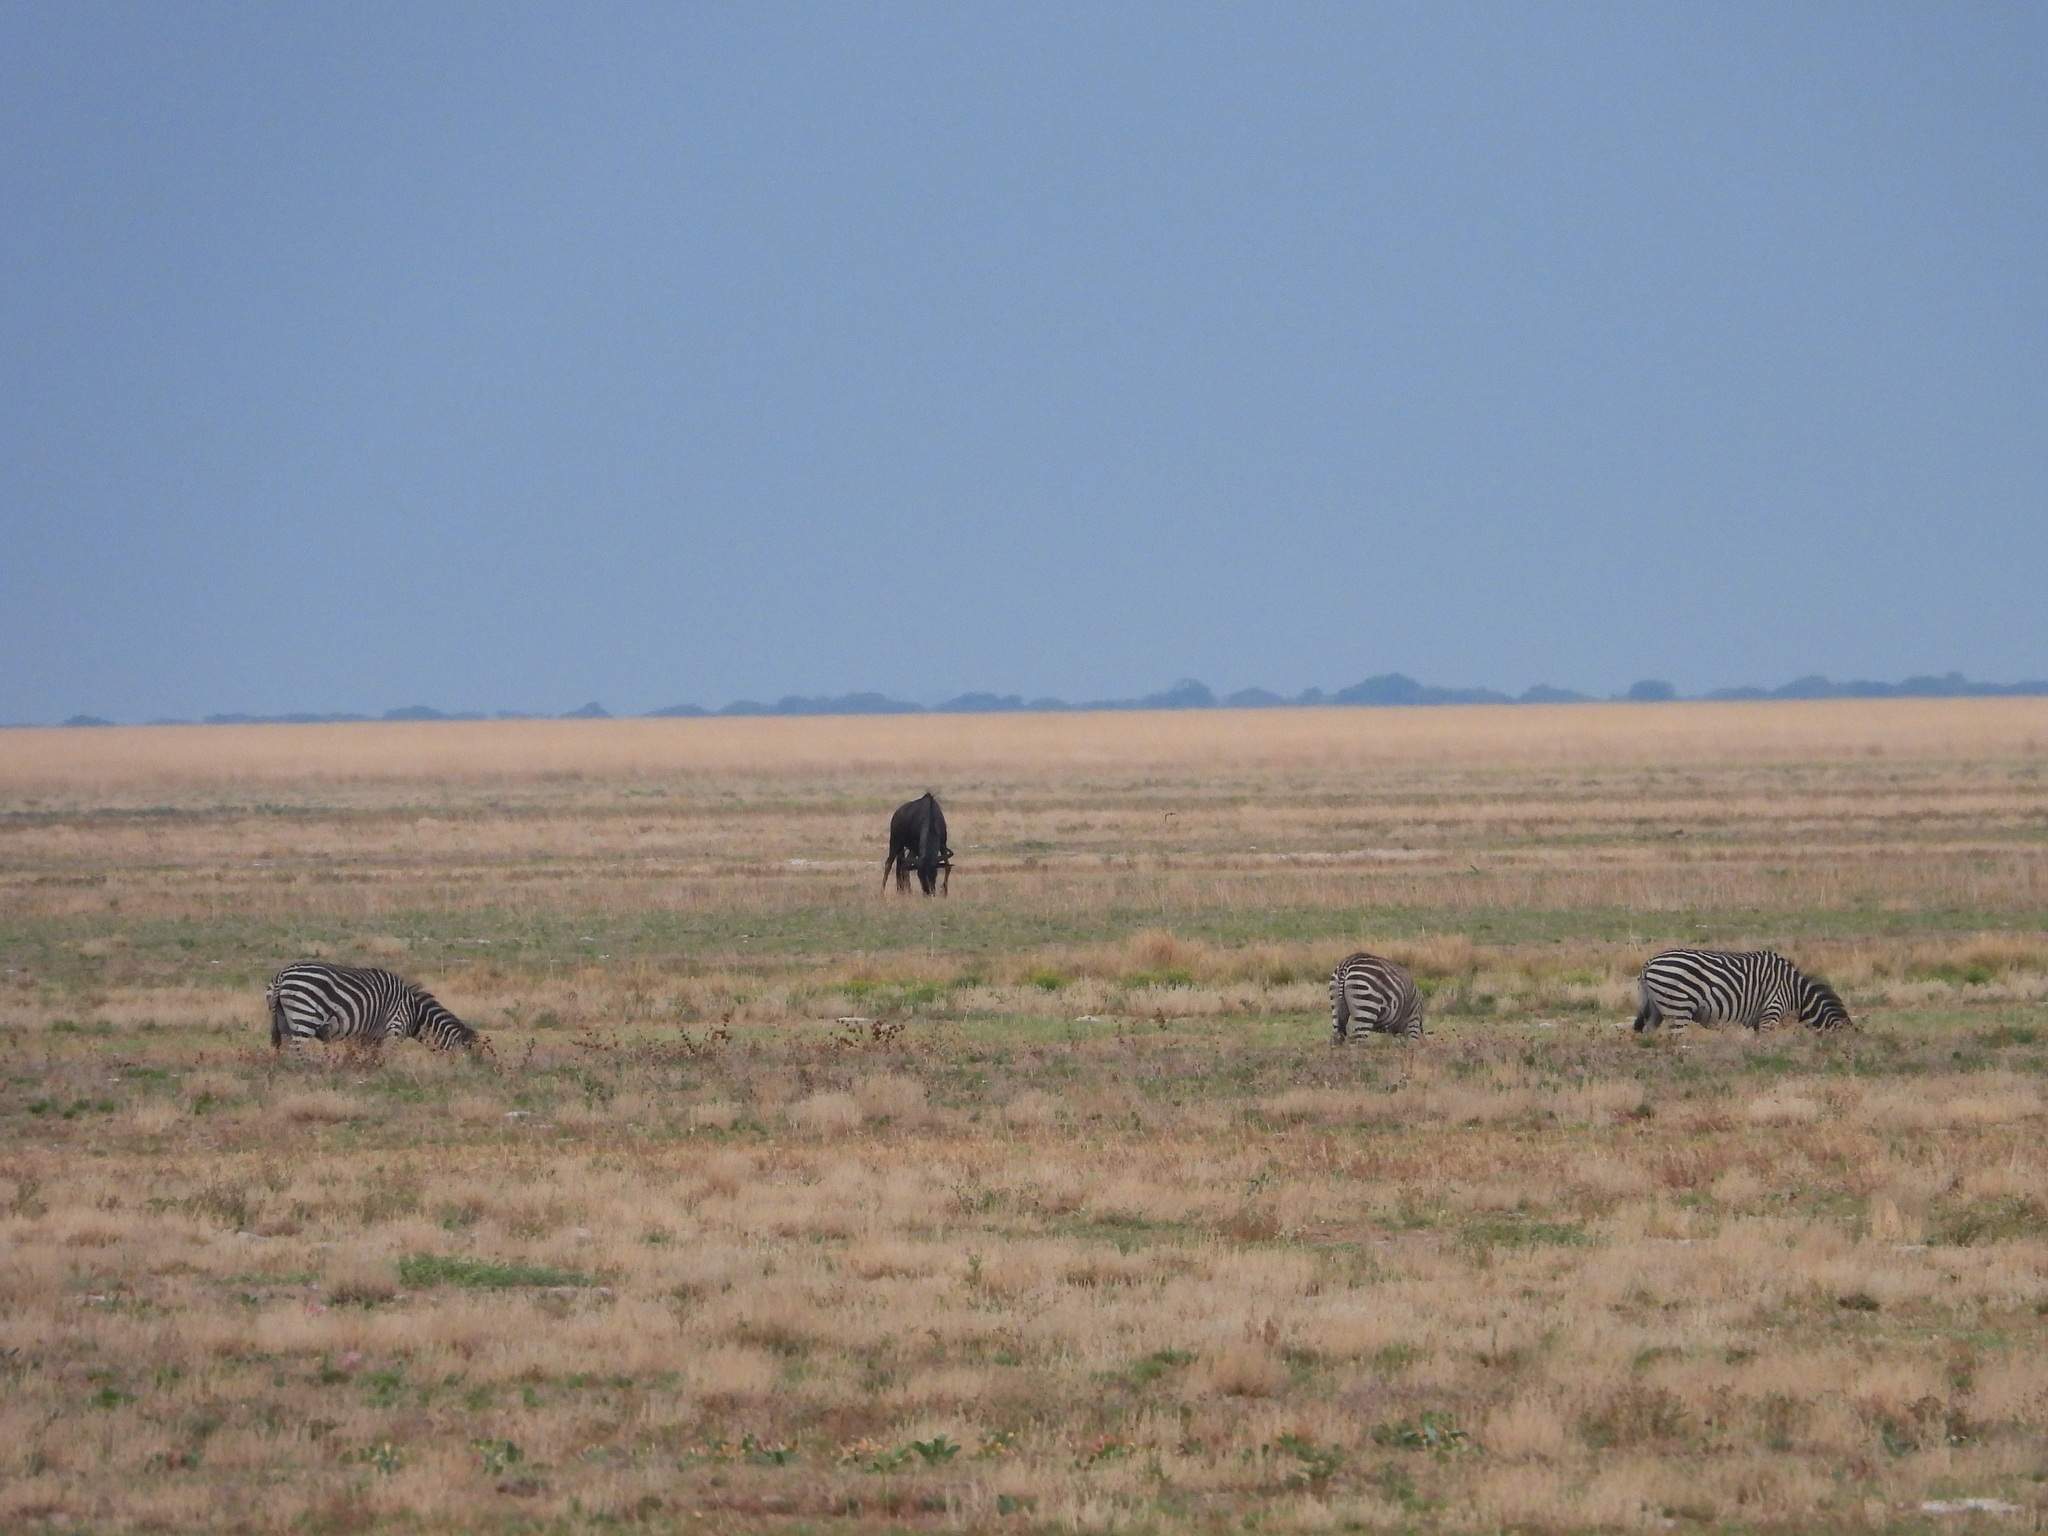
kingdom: Animalia
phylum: Chordata
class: Mammalia
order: Artiodactyla
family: Bovidae
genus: Connochaetes
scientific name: Connochaetes taurinus
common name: Blue wildebeest
